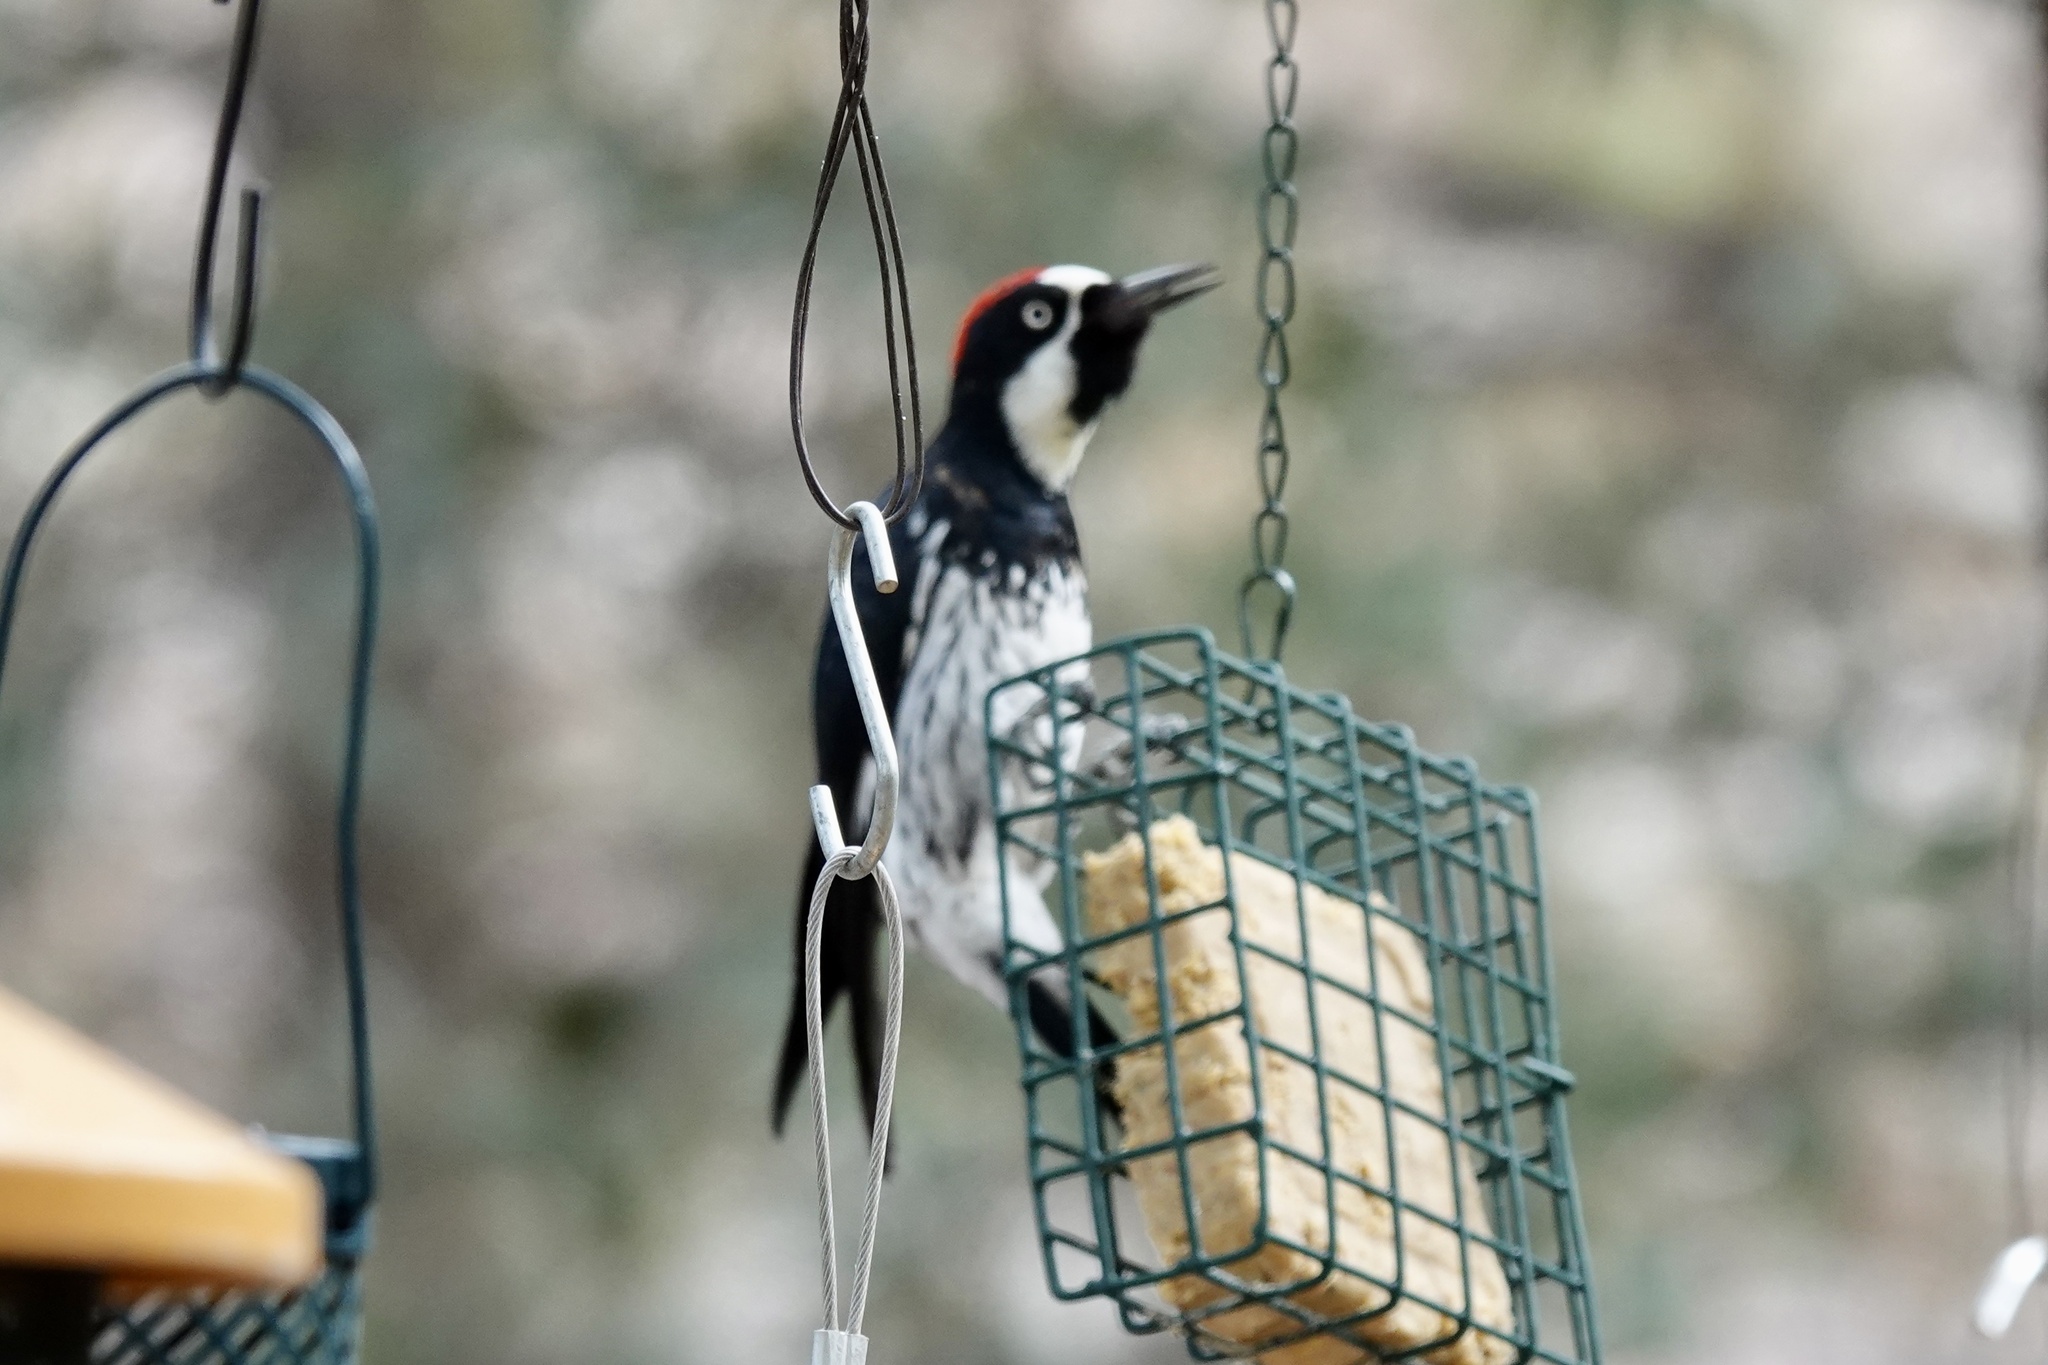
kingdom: Animalia
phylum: Chordata
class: Aves
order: Piciformes
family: Picidae
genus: Melanerpes
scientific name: Melanerpes formicivorus
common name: Acorn woodpecker
